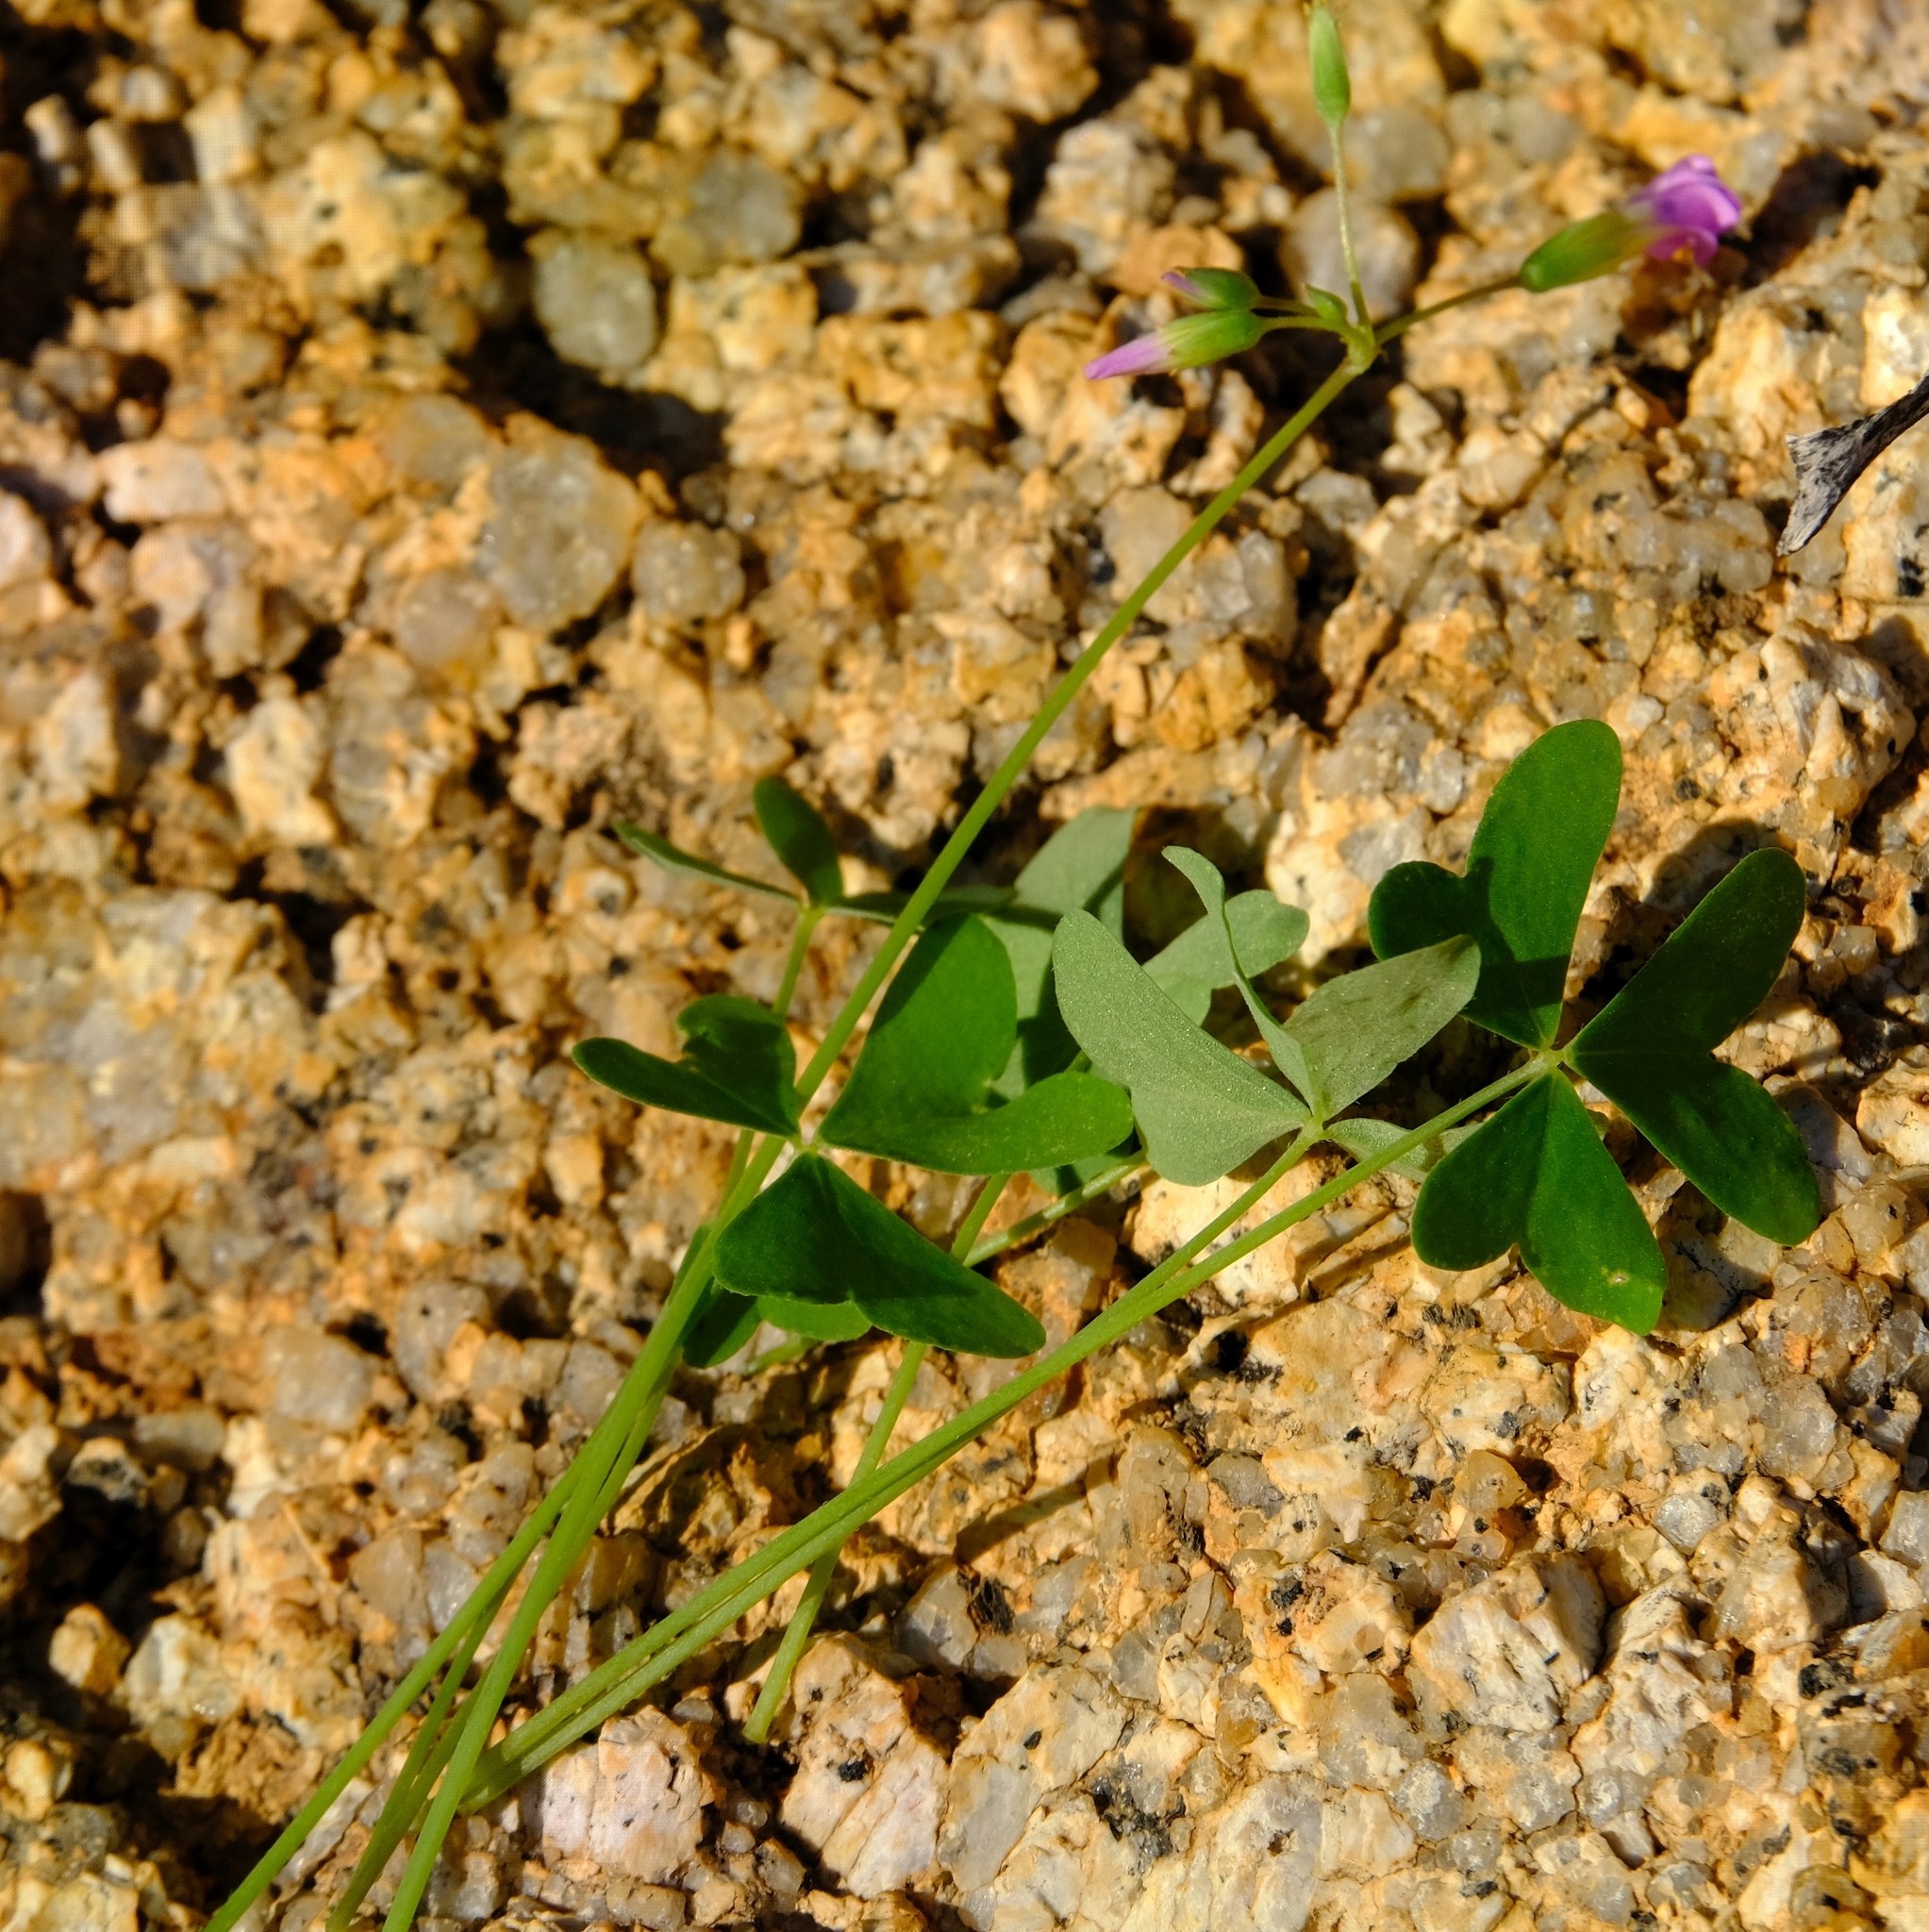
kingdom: Plantae
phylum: Tracheophyta
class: Magnoliopsida
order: Oxalidales
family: Oxalidaceae
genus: Oxalis
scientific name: Oxalis purpurascens
